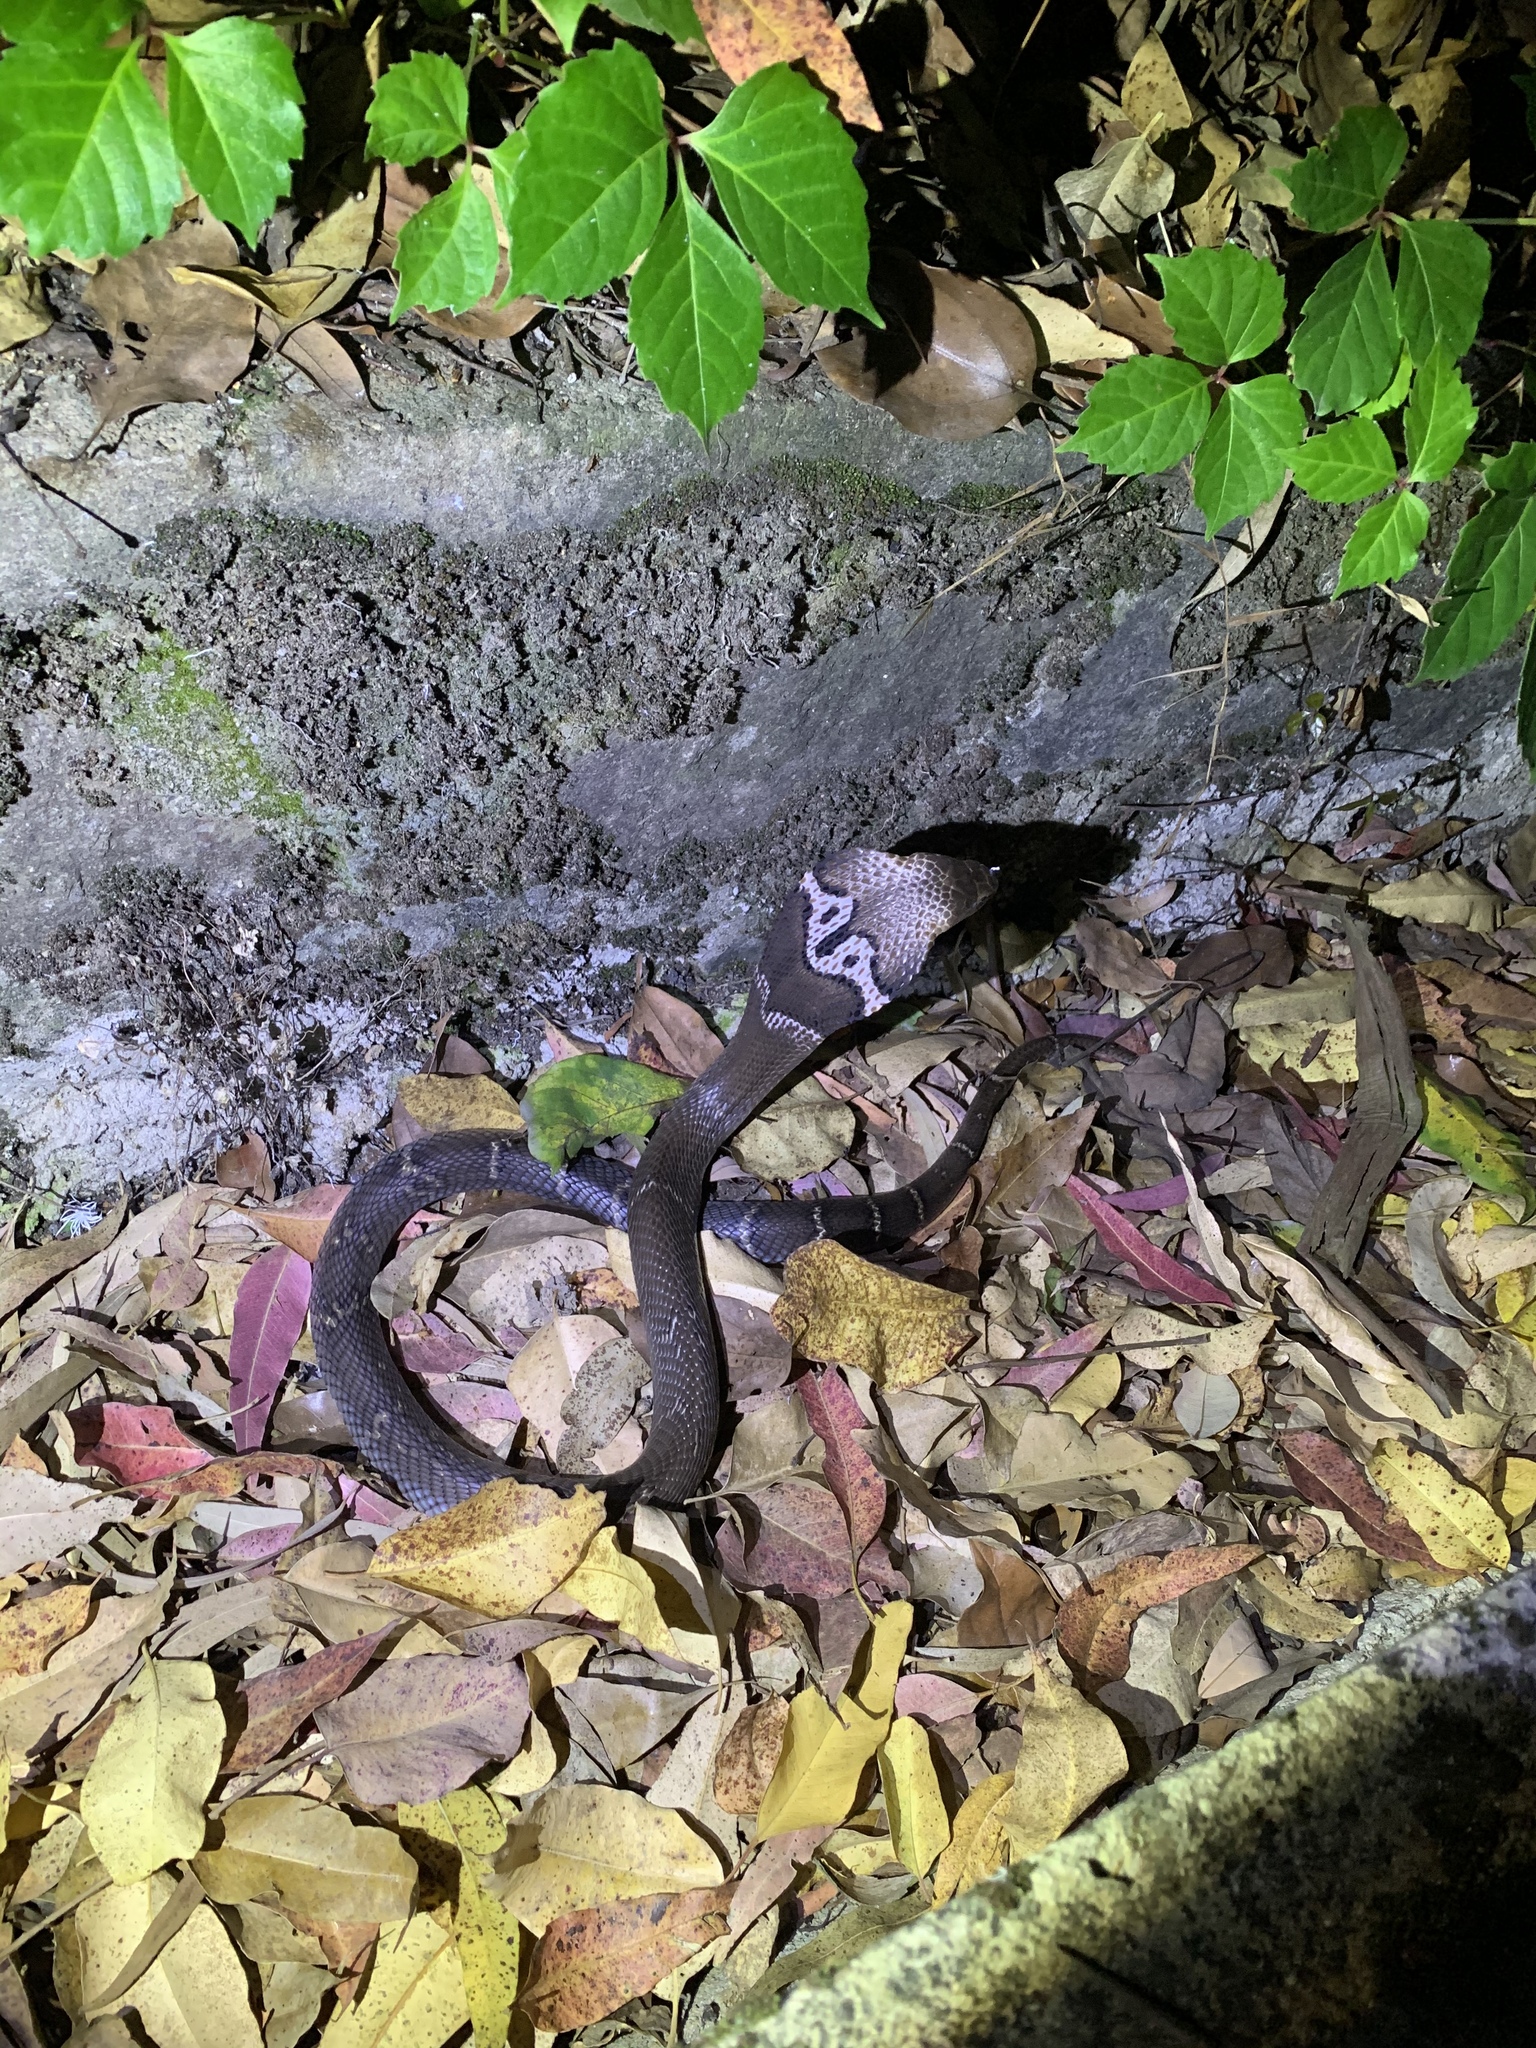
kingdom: Animalia
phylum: Chordata
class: Squamata
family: Elapidae
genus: Naja
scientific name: Naja atra
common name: Chinese cobra
